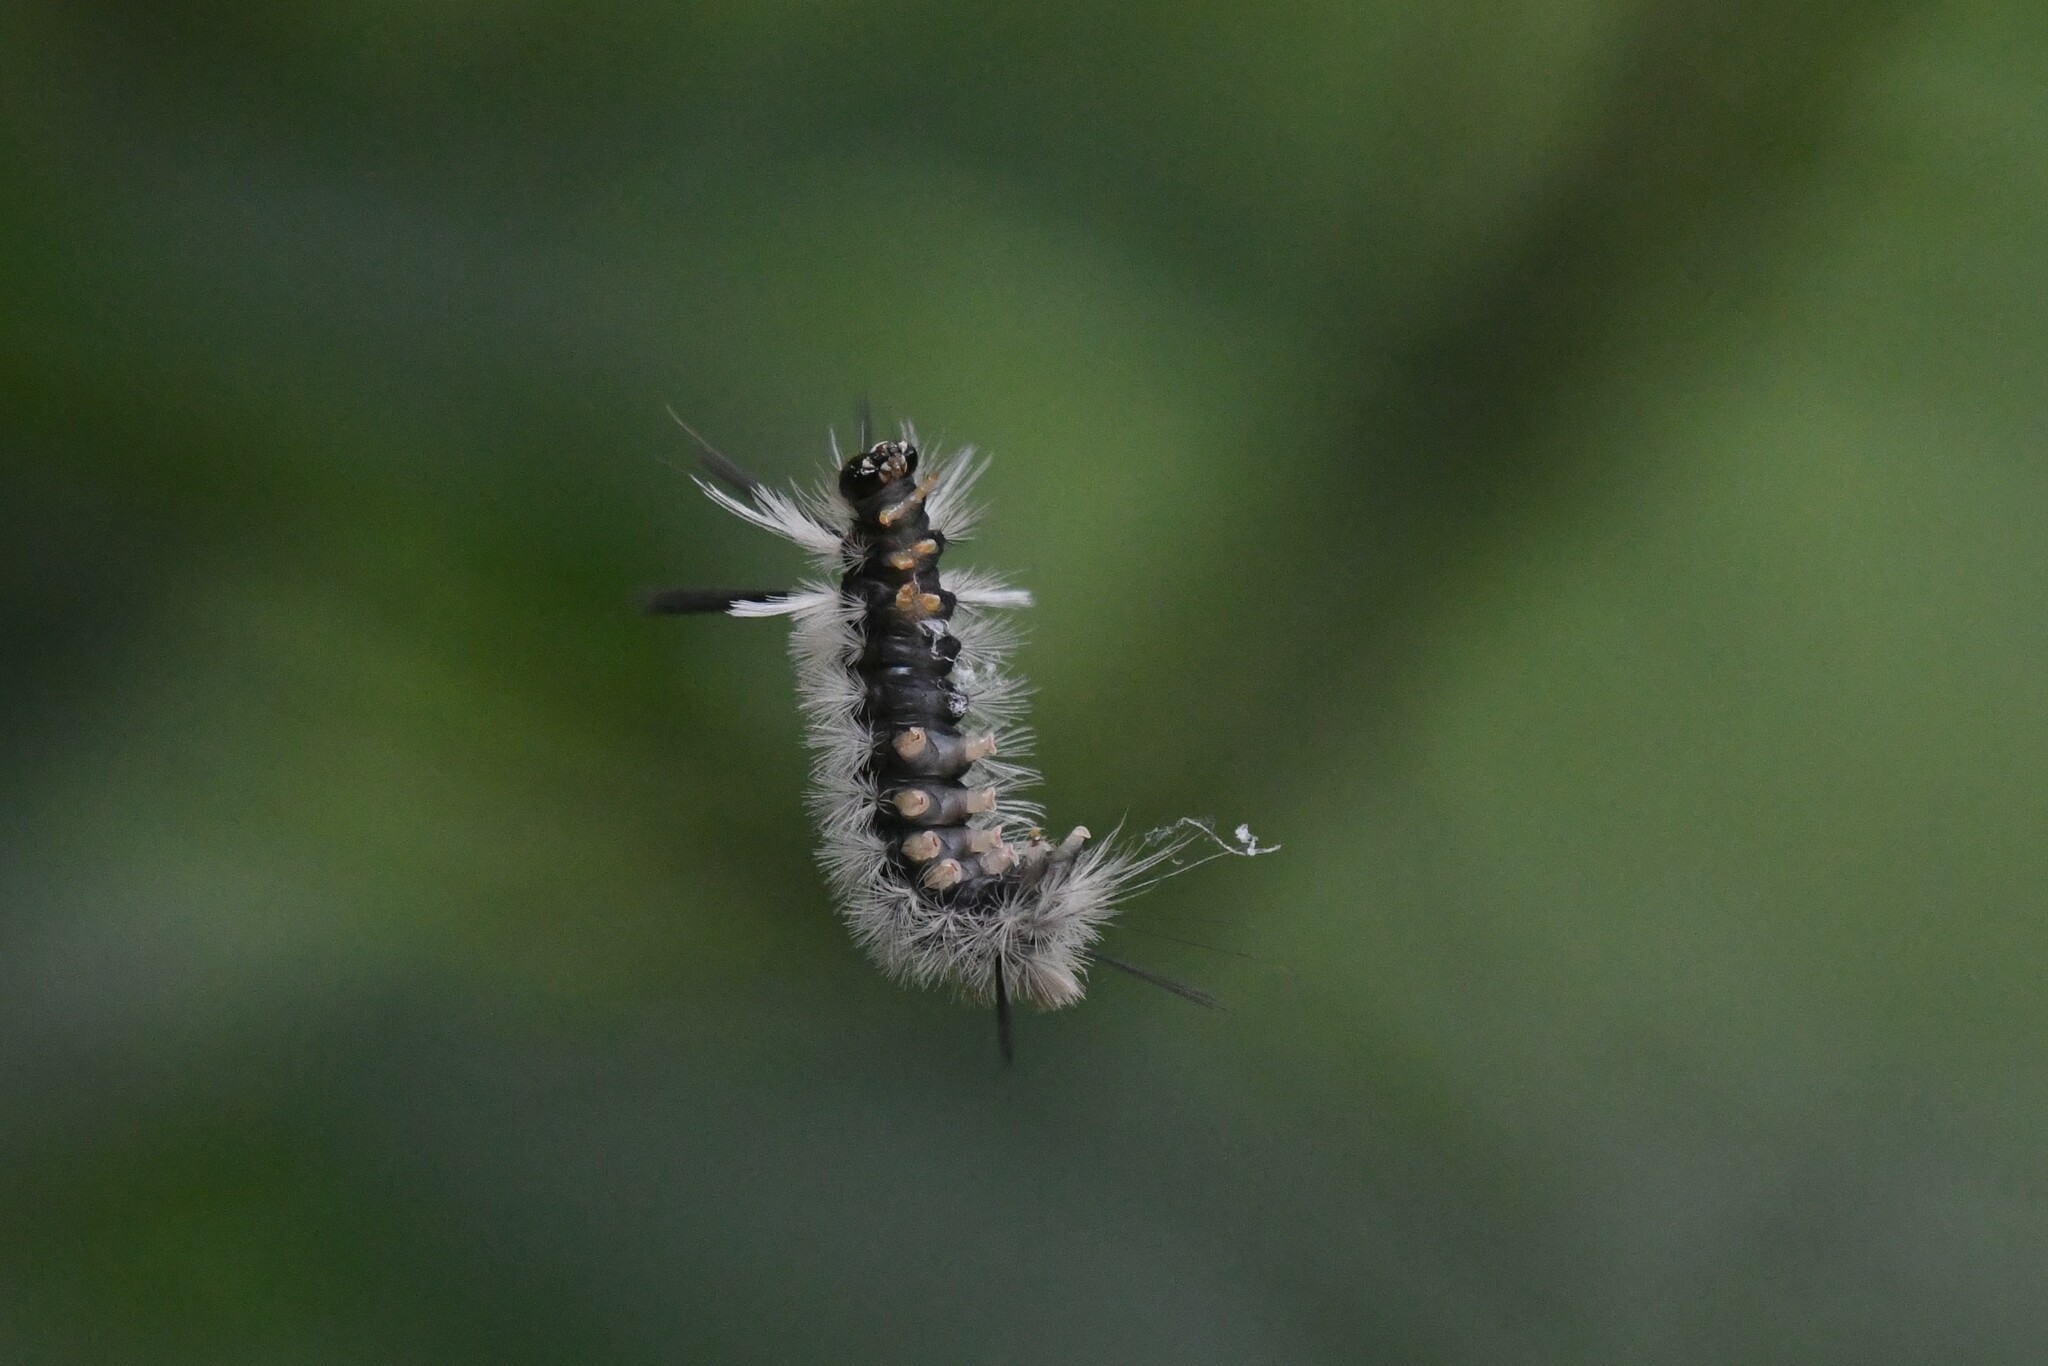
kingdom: Animalia
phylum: Arthropoda
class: Insecta
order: Lepidoptera
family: Erebidae
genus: Halysidota
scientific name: Halysidota tessellaris
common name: Banded tussock moth
